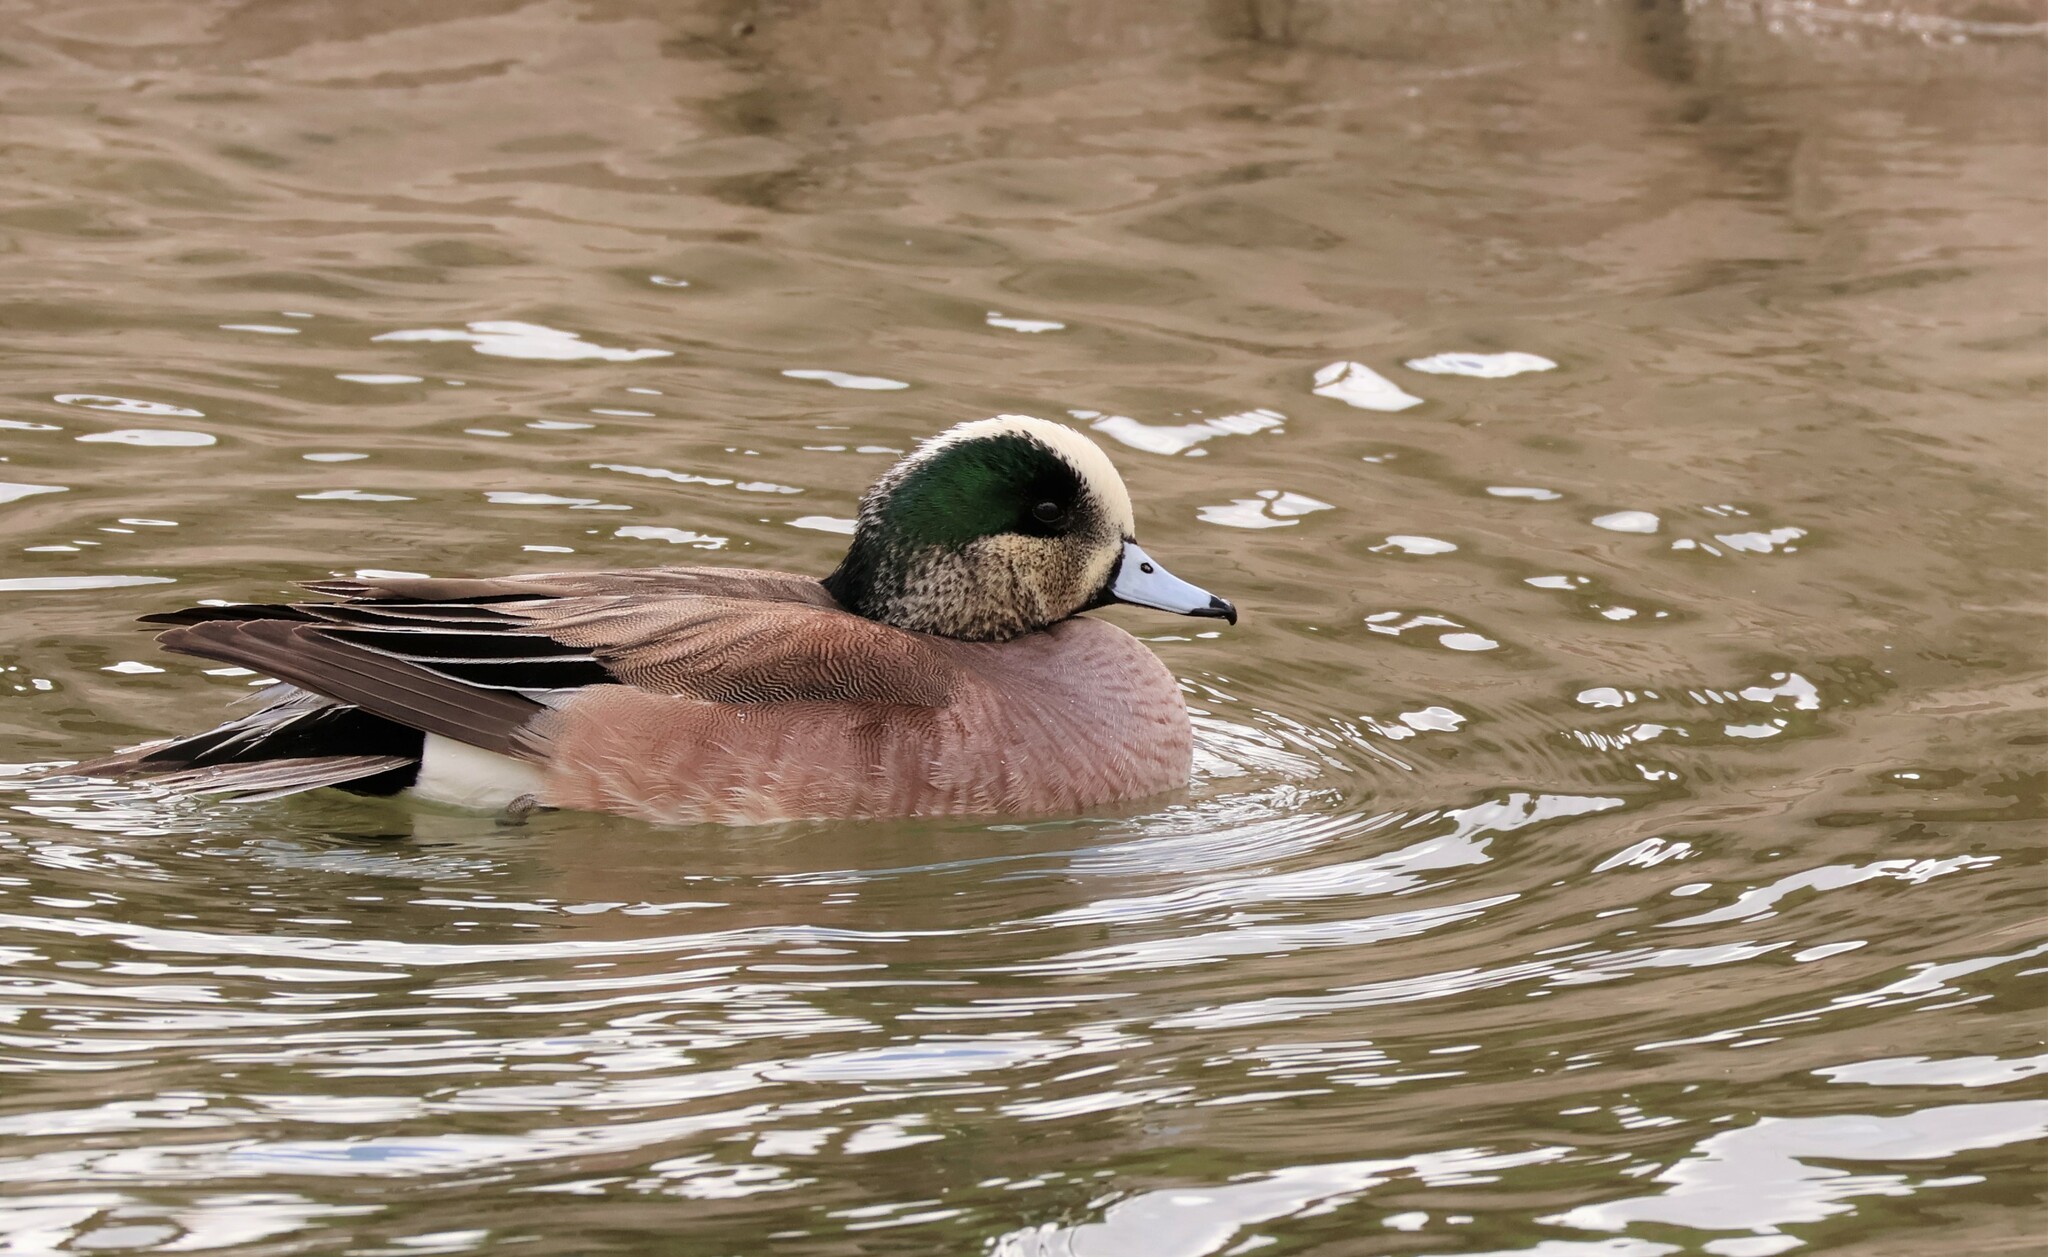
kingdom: Animalia
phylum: Chordata
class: Aves
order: Anseriformes
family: Anatidae
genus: Mareca
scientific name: Mareca americana
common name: American wigeon
